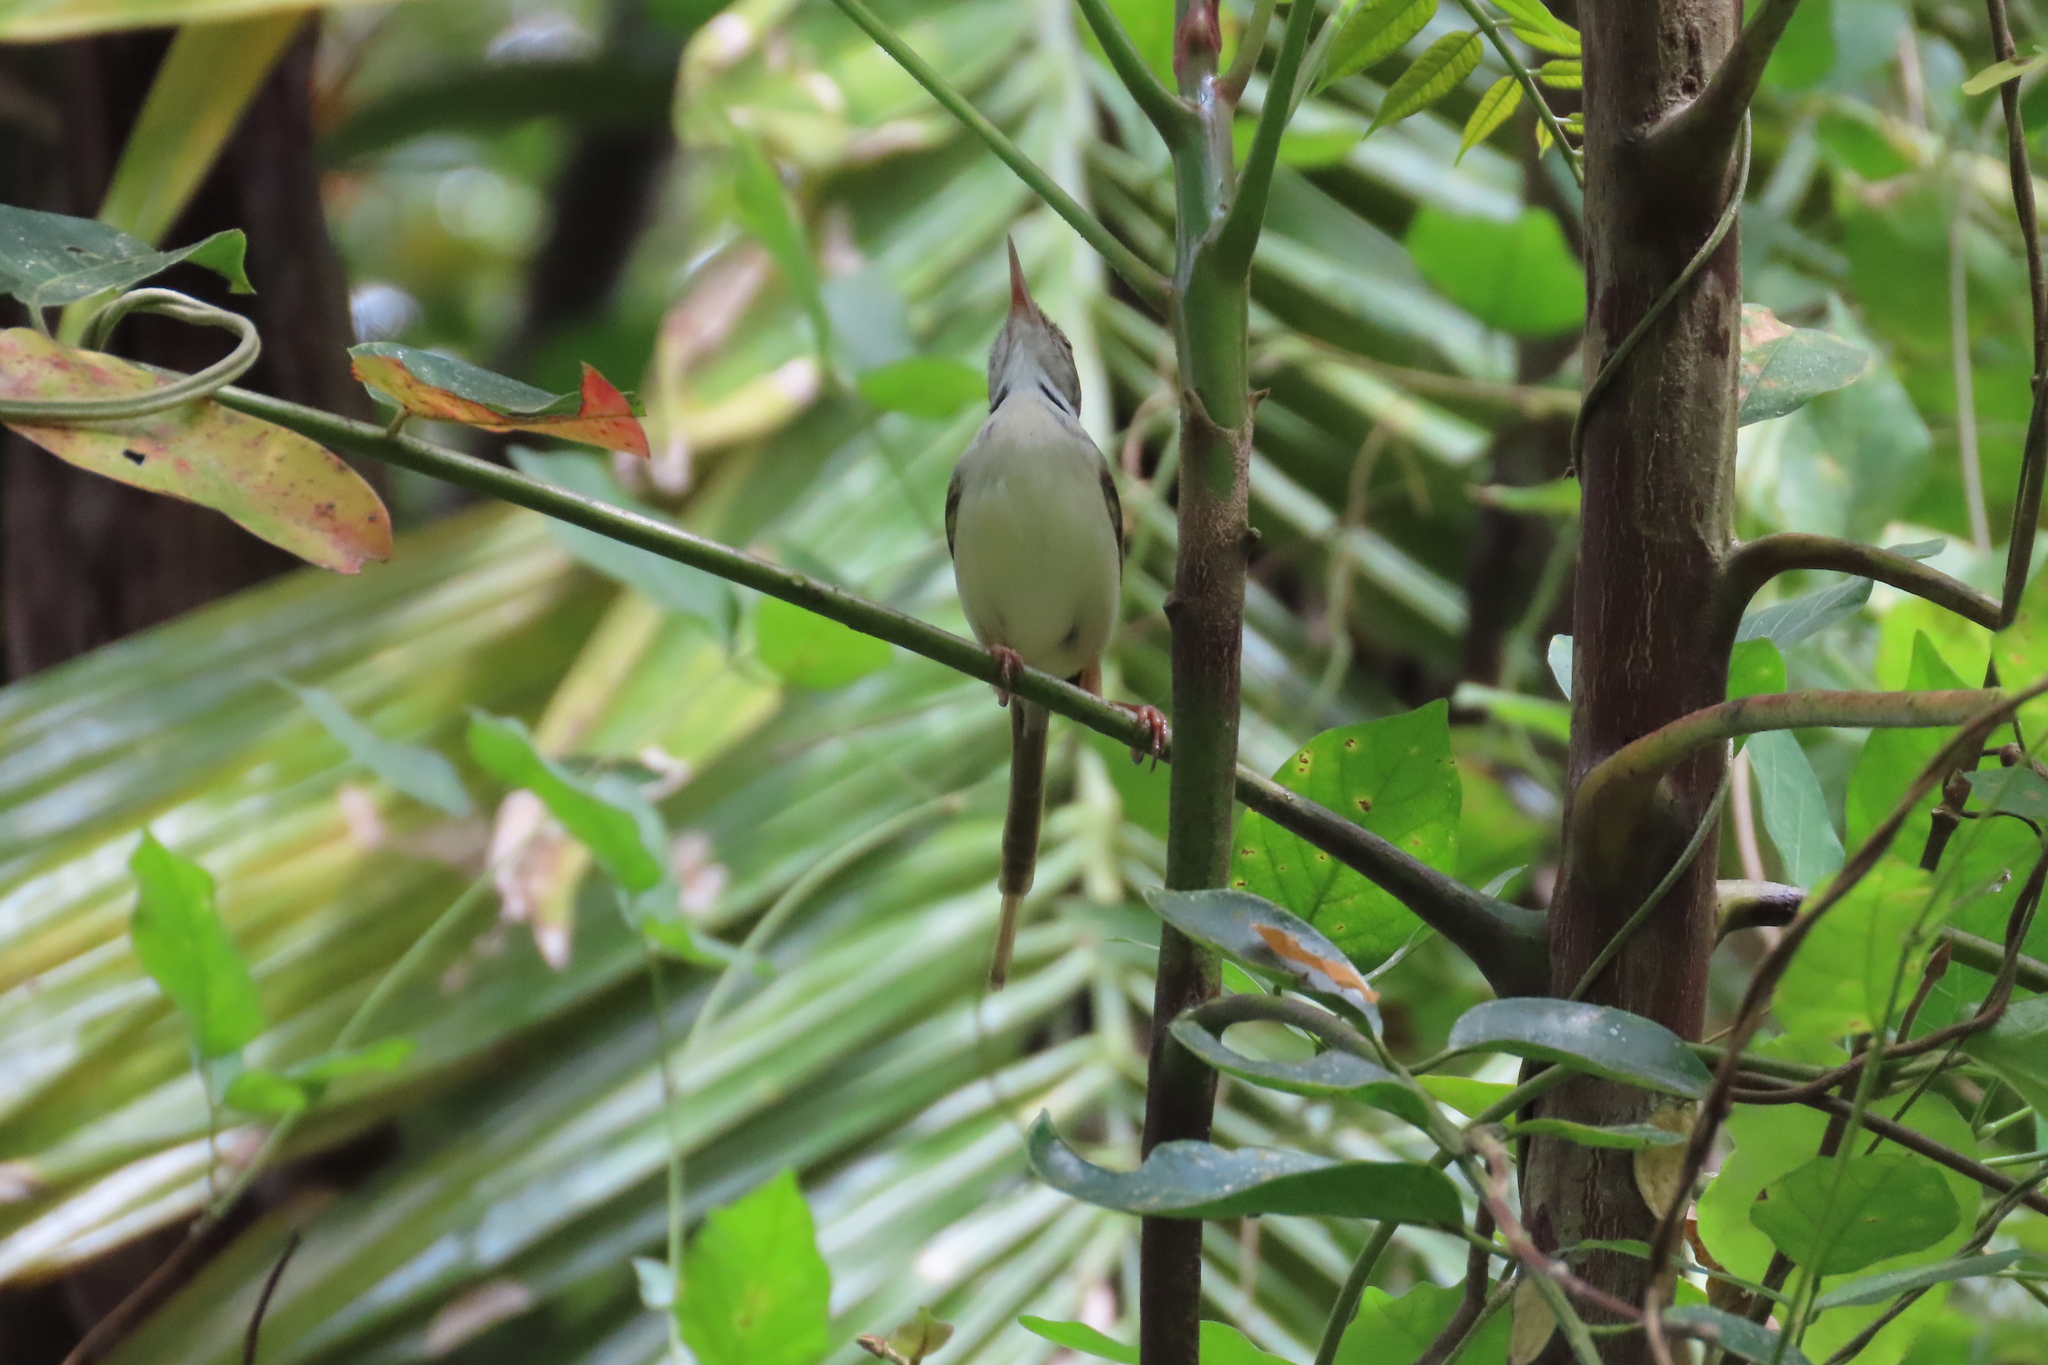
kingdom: Animalia
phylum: Chordata
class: Aves
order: Passeriformes
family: Cisticolidae
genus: Orthotomus
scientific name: Orthotomus sutorius
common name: Common tailorbird
